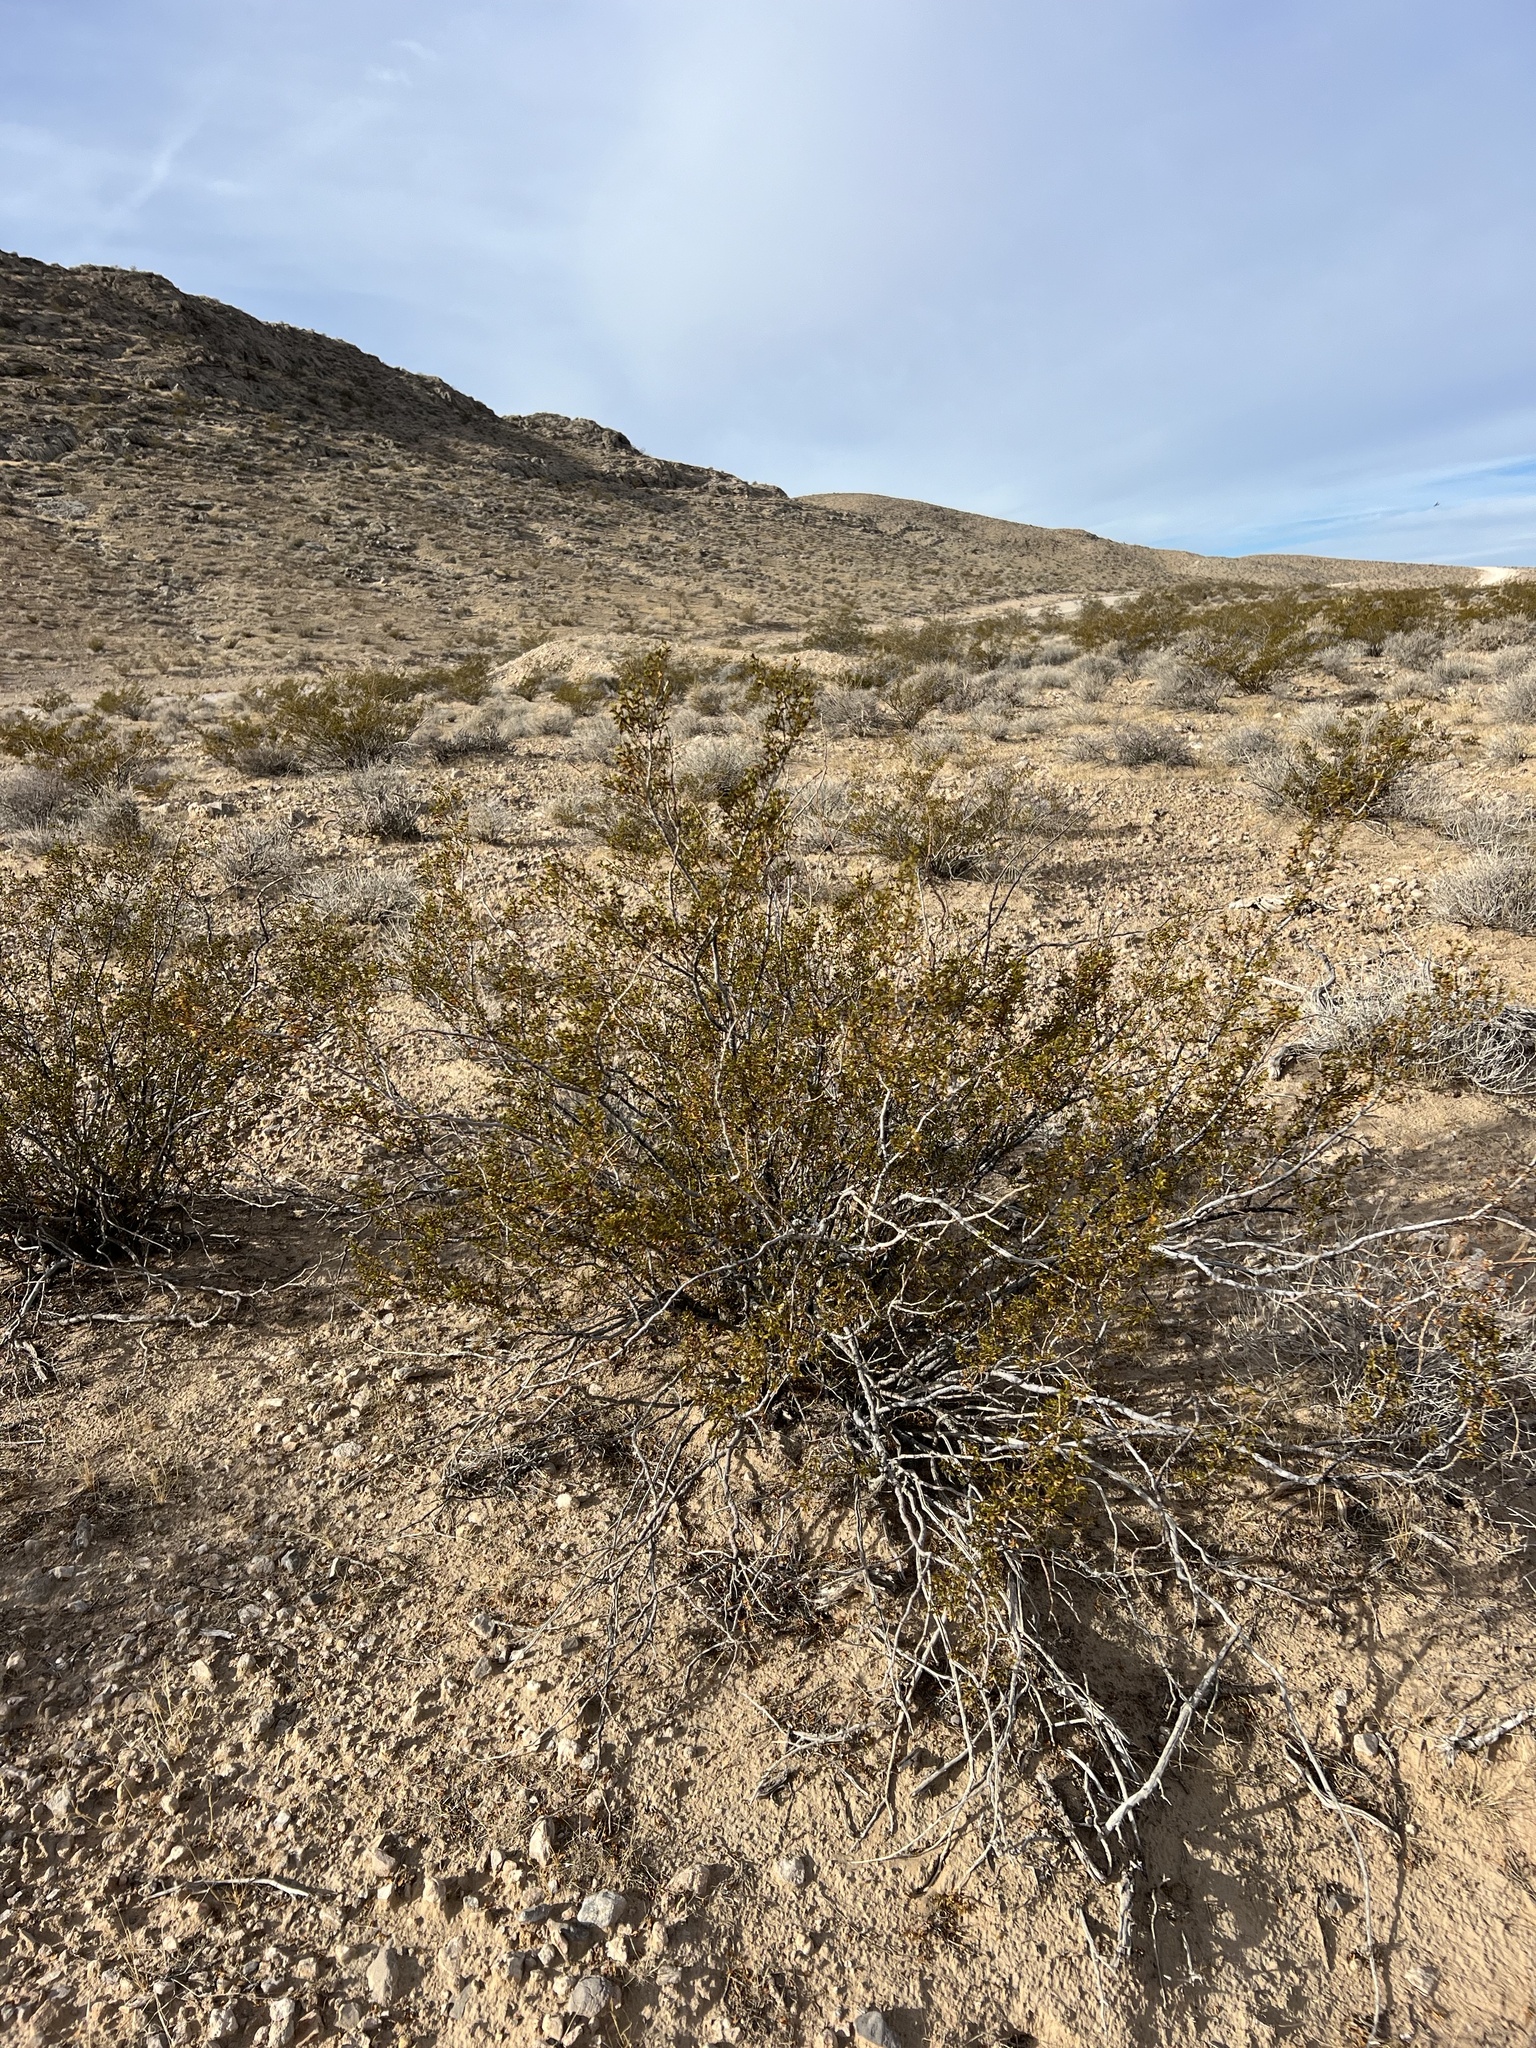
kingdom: Plantae
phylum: Tracheophyta
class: Magnoliopsida
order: Zygophyllales
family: Zygophyllaceae
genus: Larrea
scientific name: Larrea tridentata
